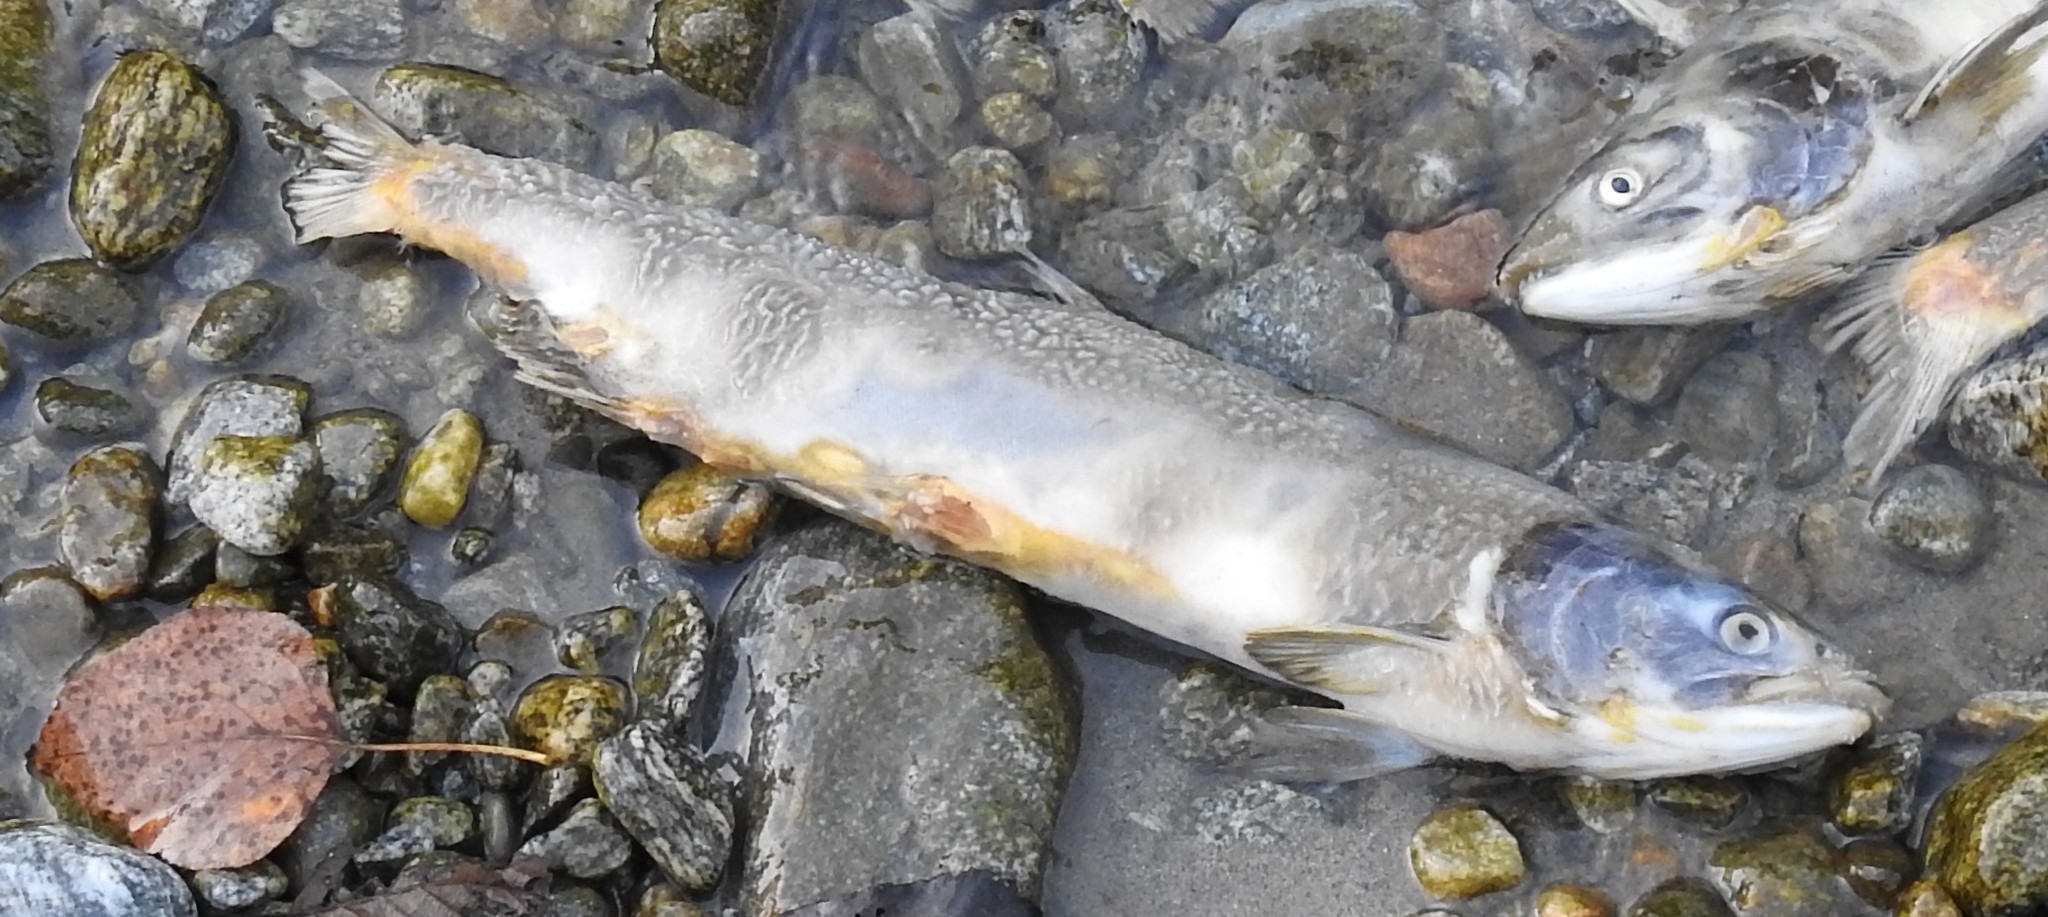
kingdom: Animalia
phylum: Chordata
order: Salmoniformes
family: Salmonidae
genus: Oncorhynchus
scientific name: Oncorhynchus gorbuscha
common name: Humpback salmon
